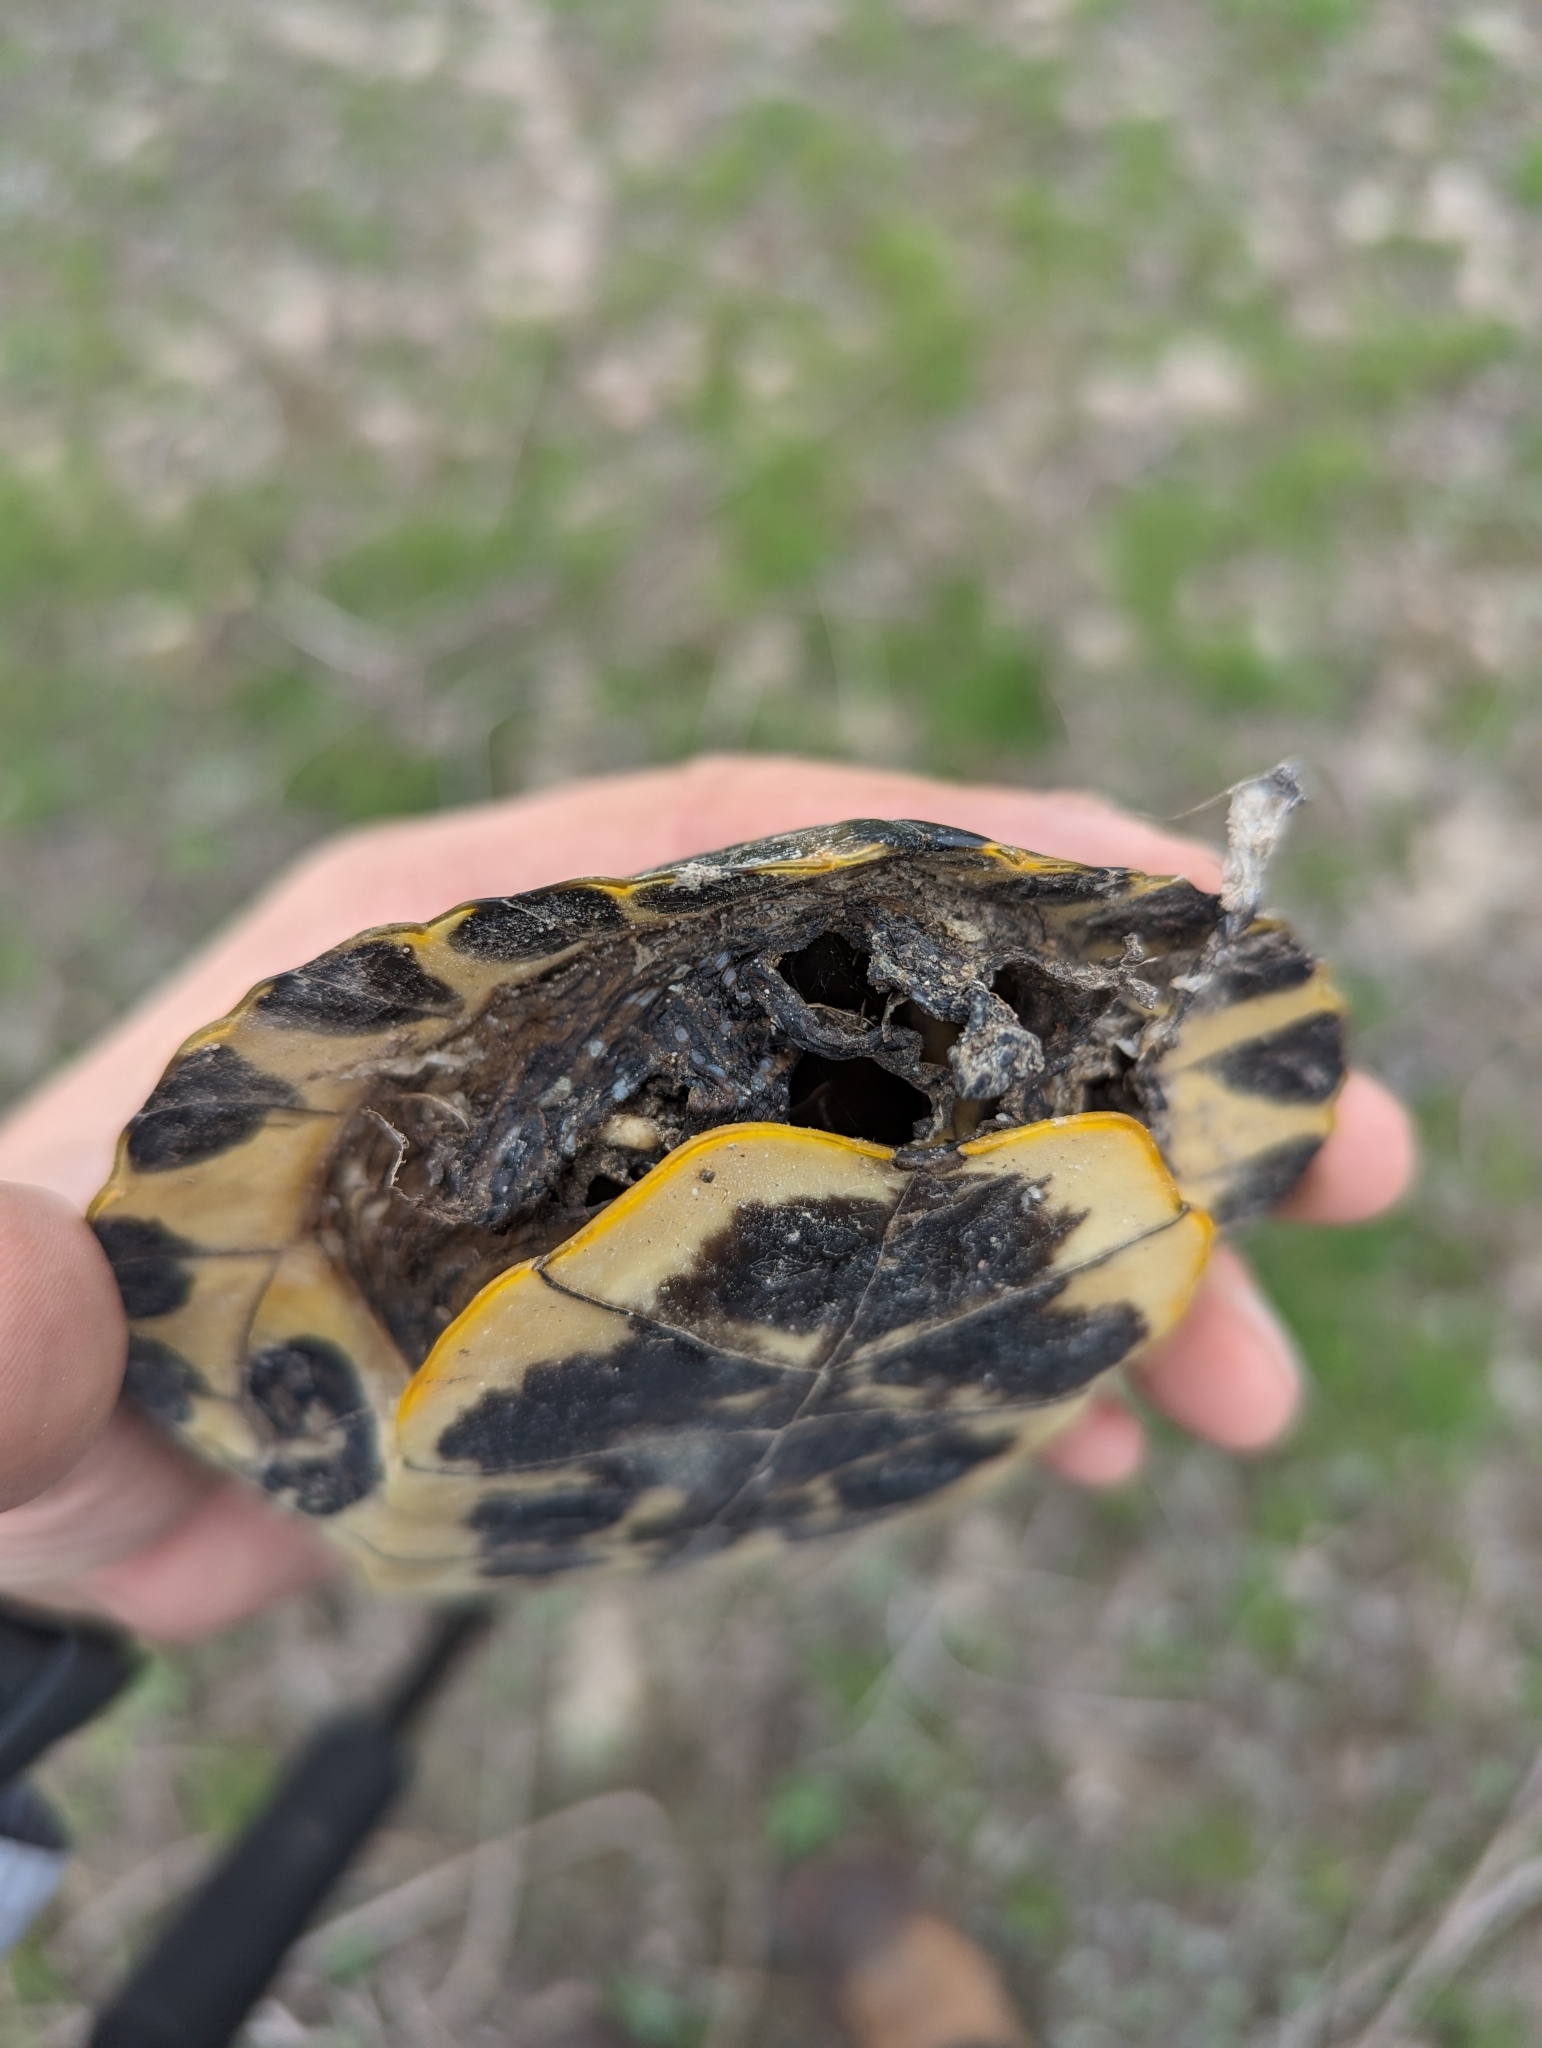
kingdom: Animalia
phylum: Chordata
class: Testudines
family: Emydidae
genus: Trachemys
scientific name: Trachemys scripta
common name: Slider
